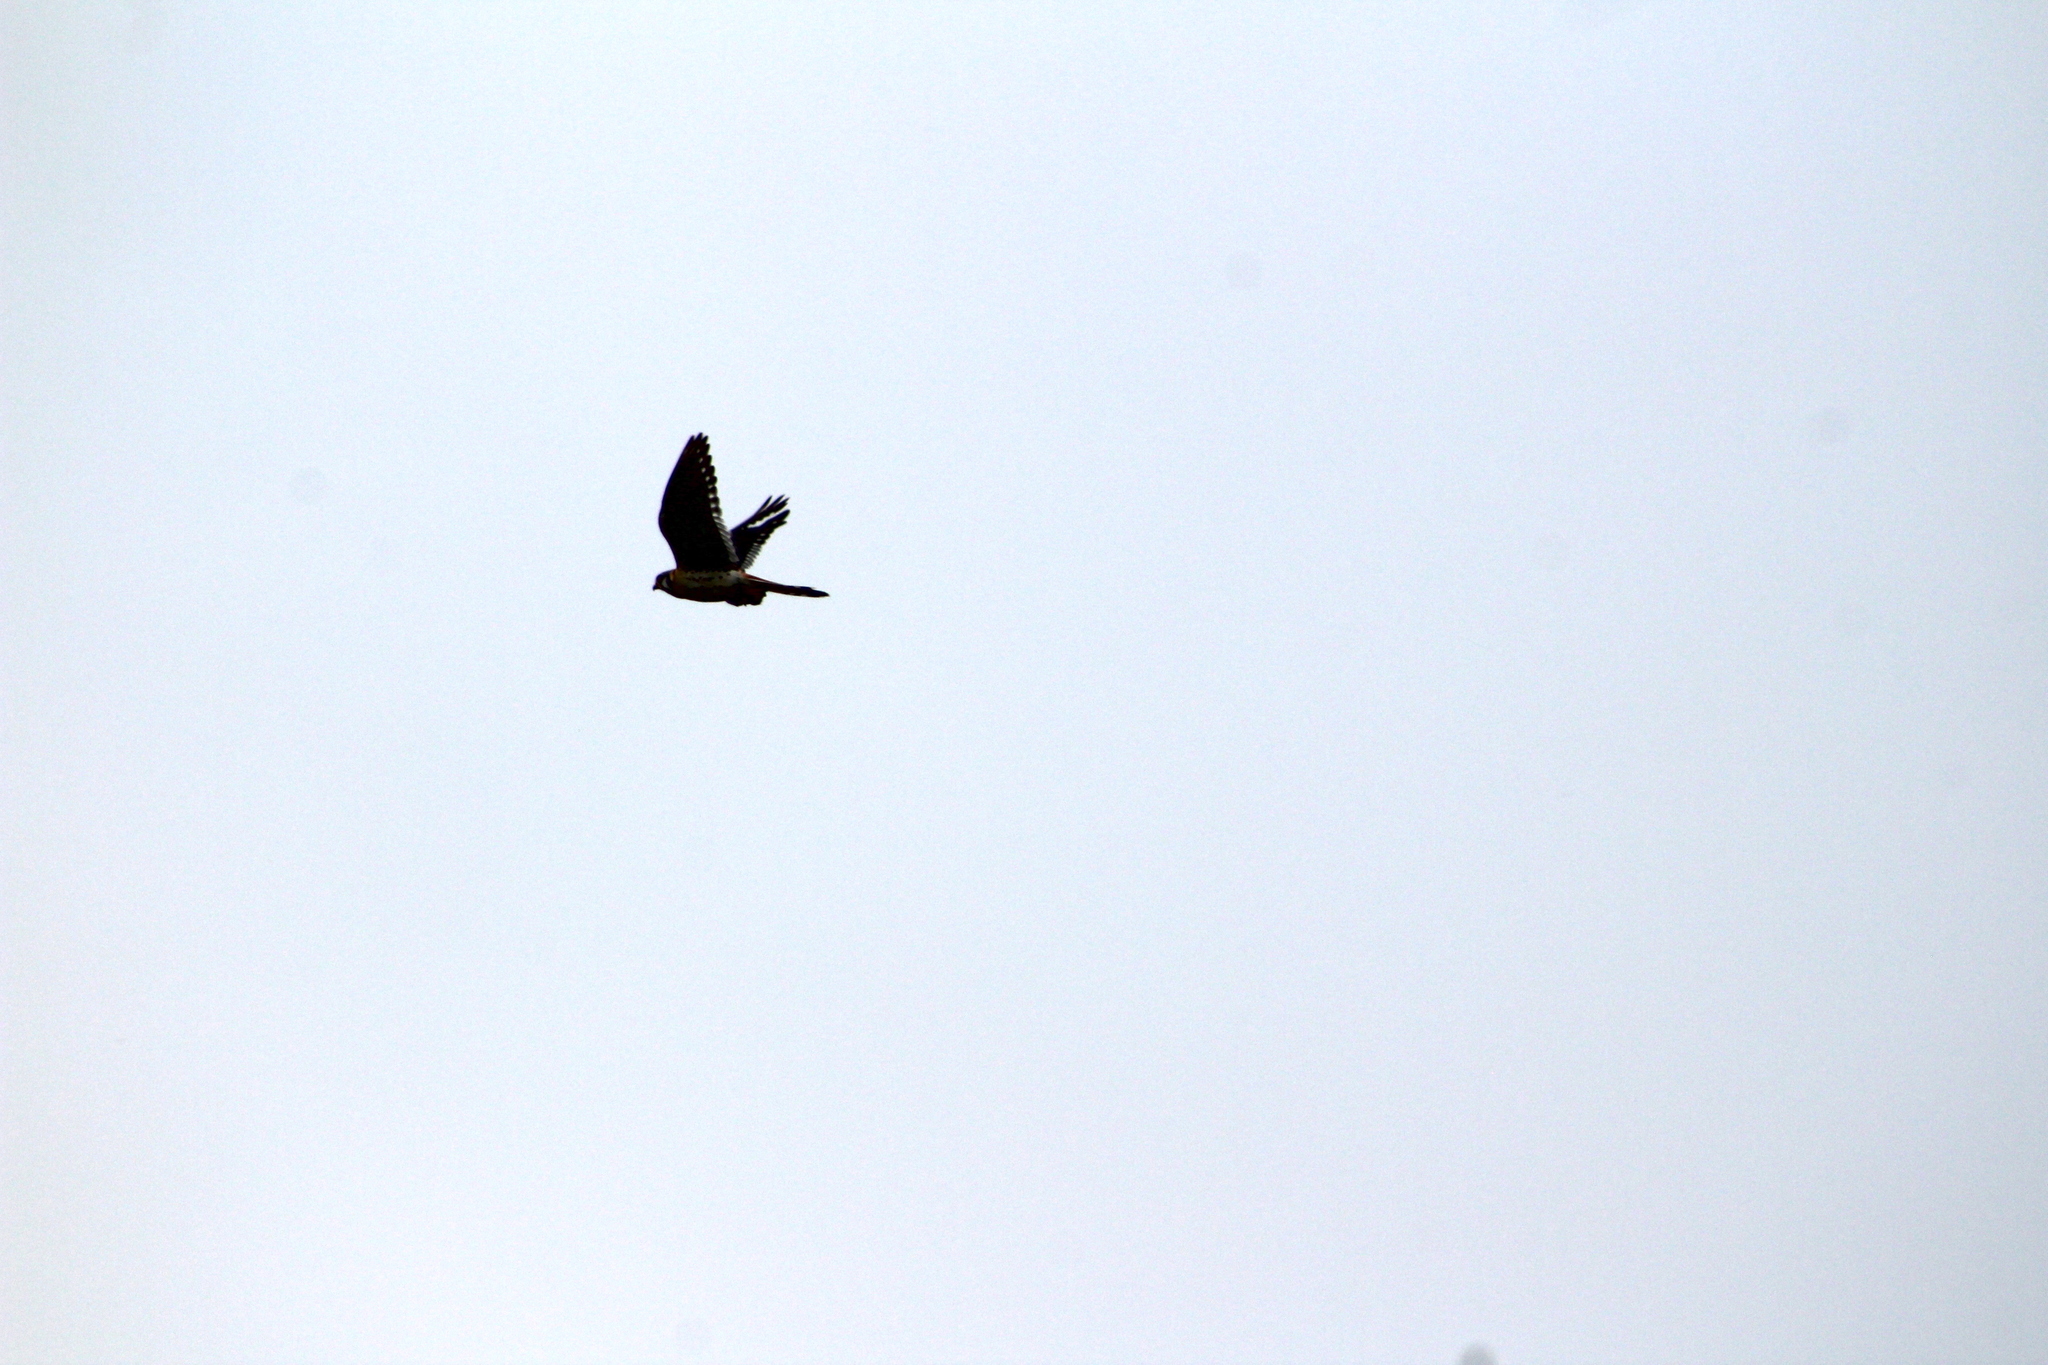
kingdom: Animalia
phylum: Chordata
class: Aves
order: Falconiformes
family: Falconidae
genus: Falco
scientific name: Falco sparverius
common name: American kestrel
